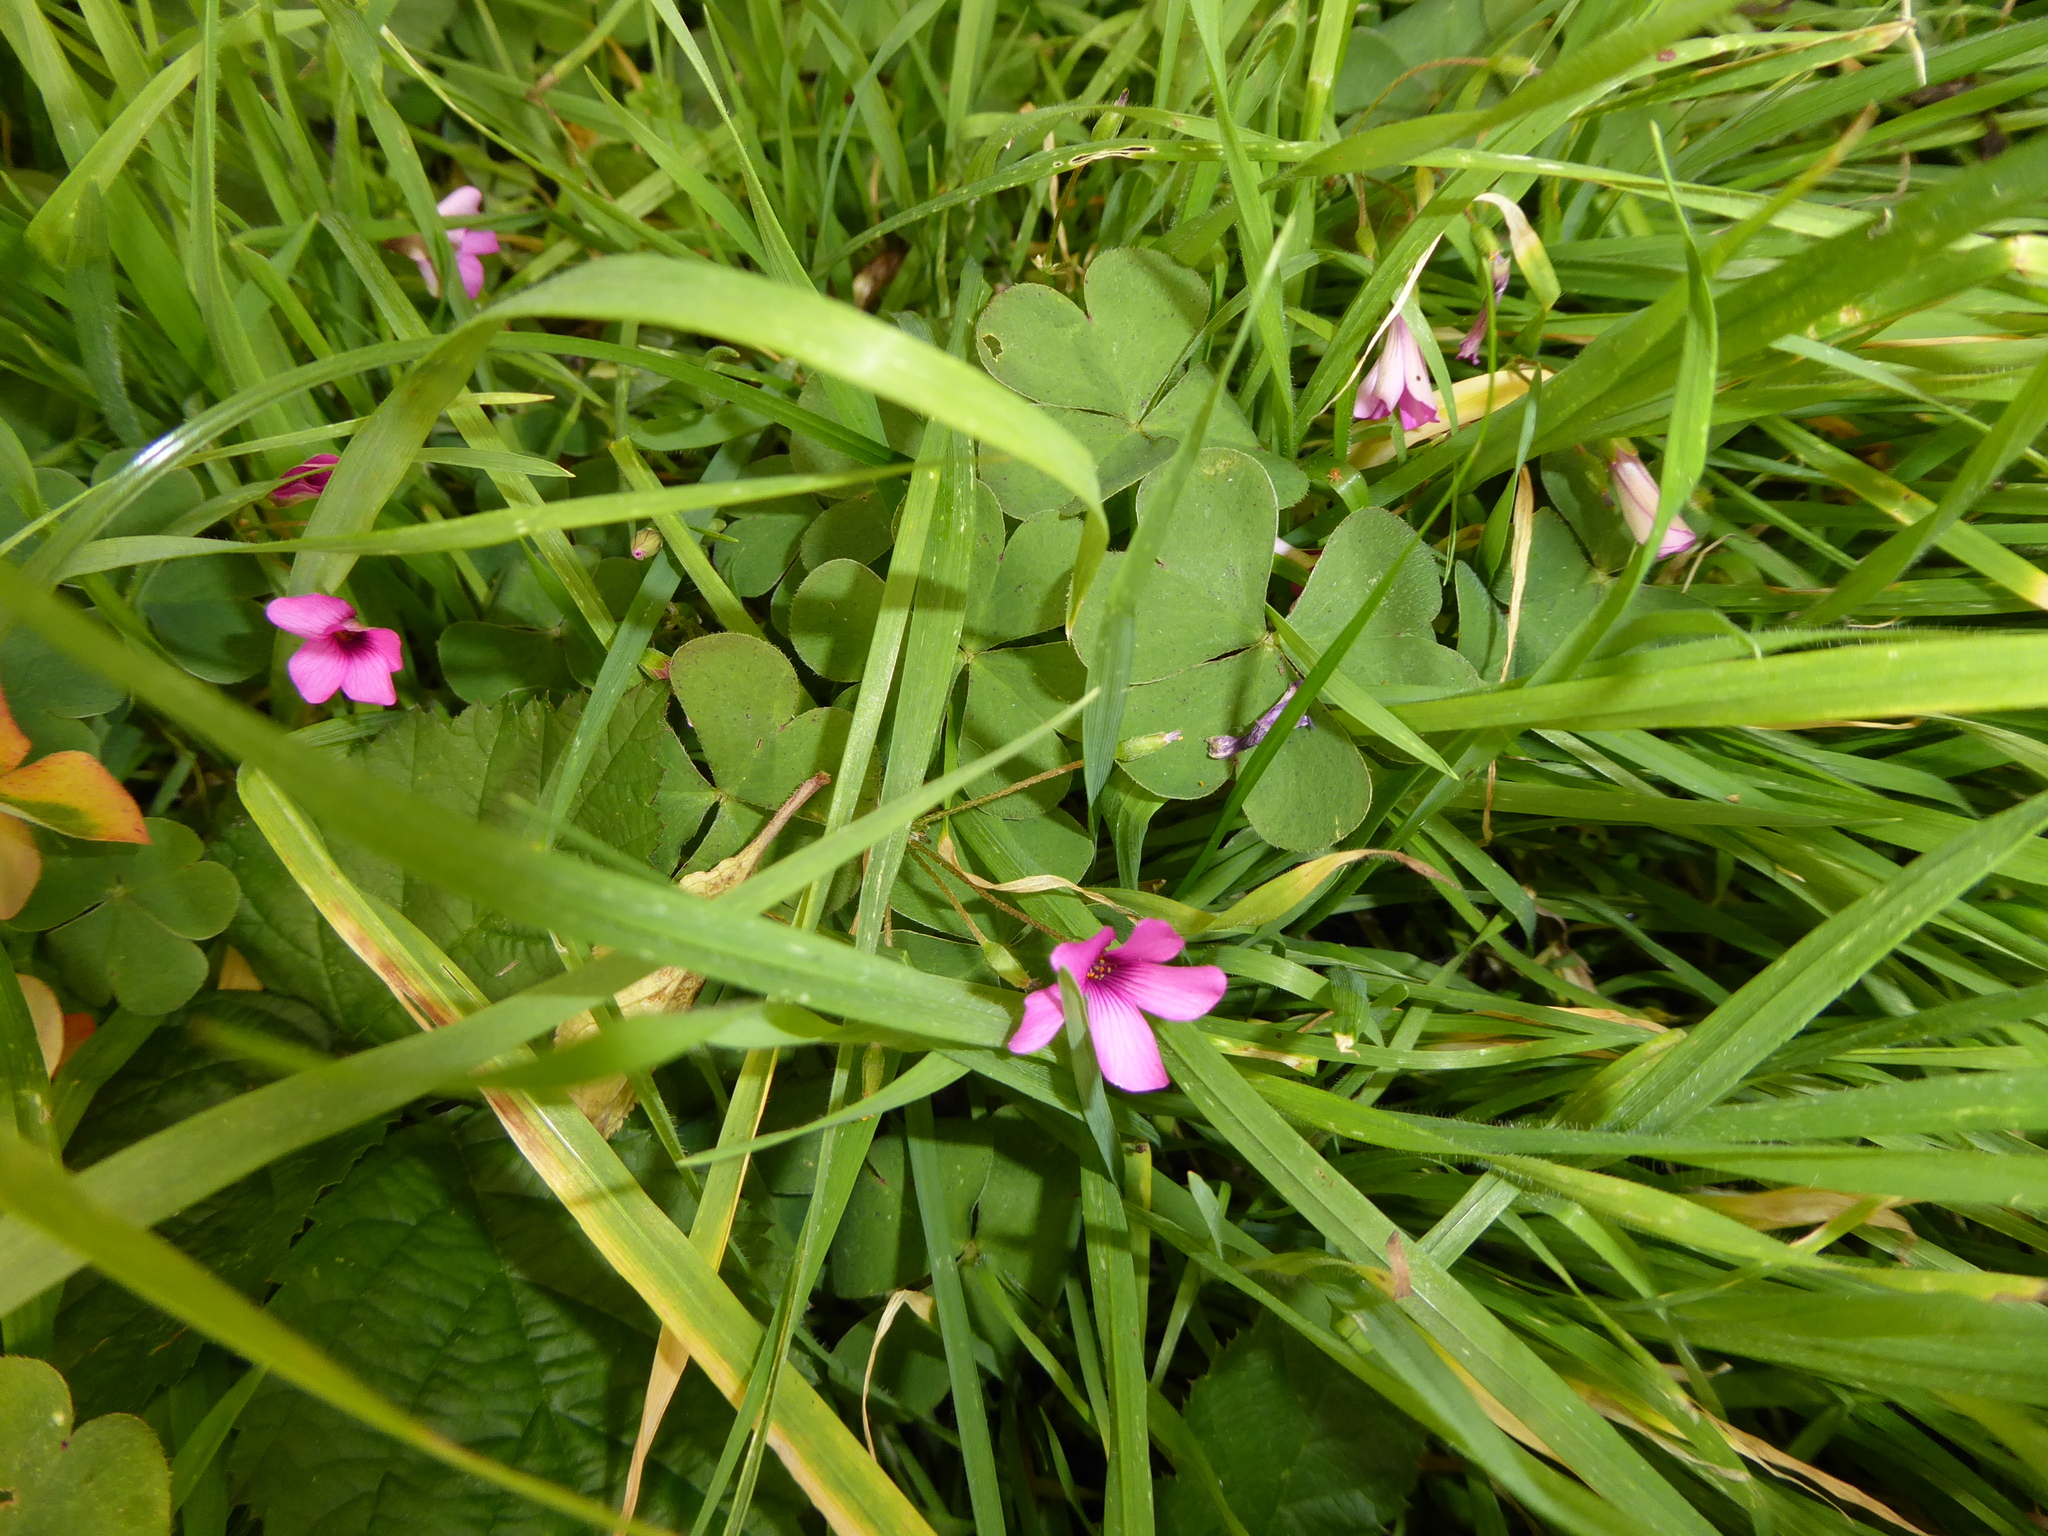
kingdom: Plantae
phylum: Tracheophyta
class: Magnoliopsida
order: Oxalidales
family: Oxalidaceae
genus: Oxalis
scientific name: Oxalis articulata
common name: Pink-sorrel
